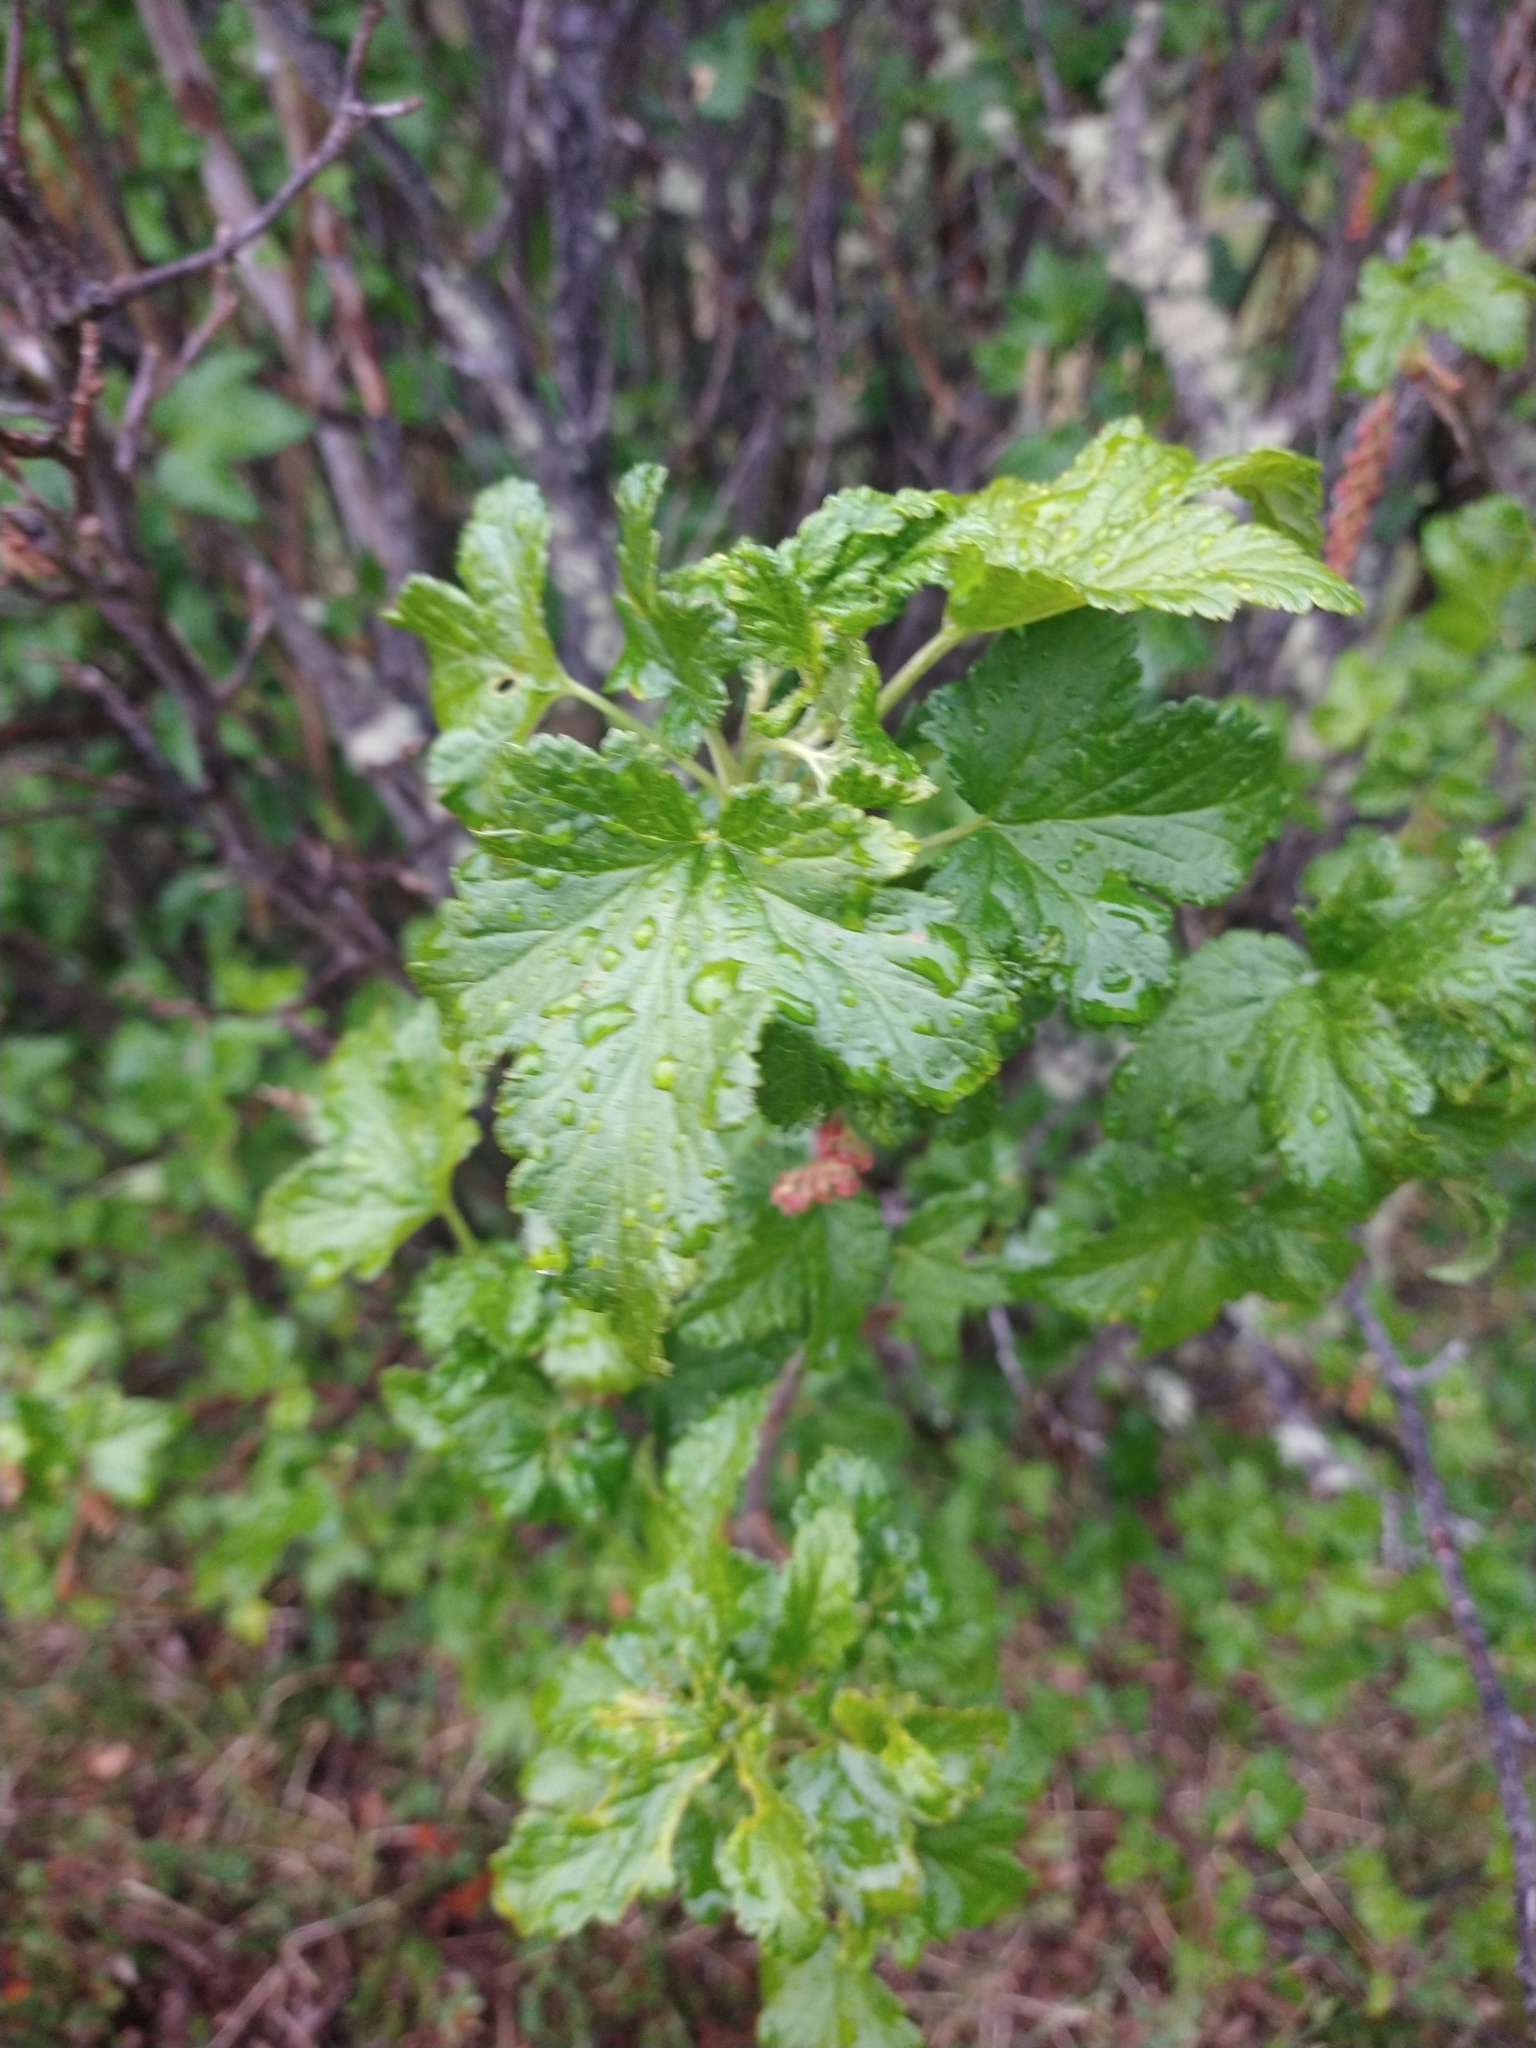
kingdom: Plantae
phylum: Tracheophyta
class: Magnoliopsida
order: Saxifragales
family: Grossulariaceae
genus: Ribes
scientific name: Ribes magellanicum
